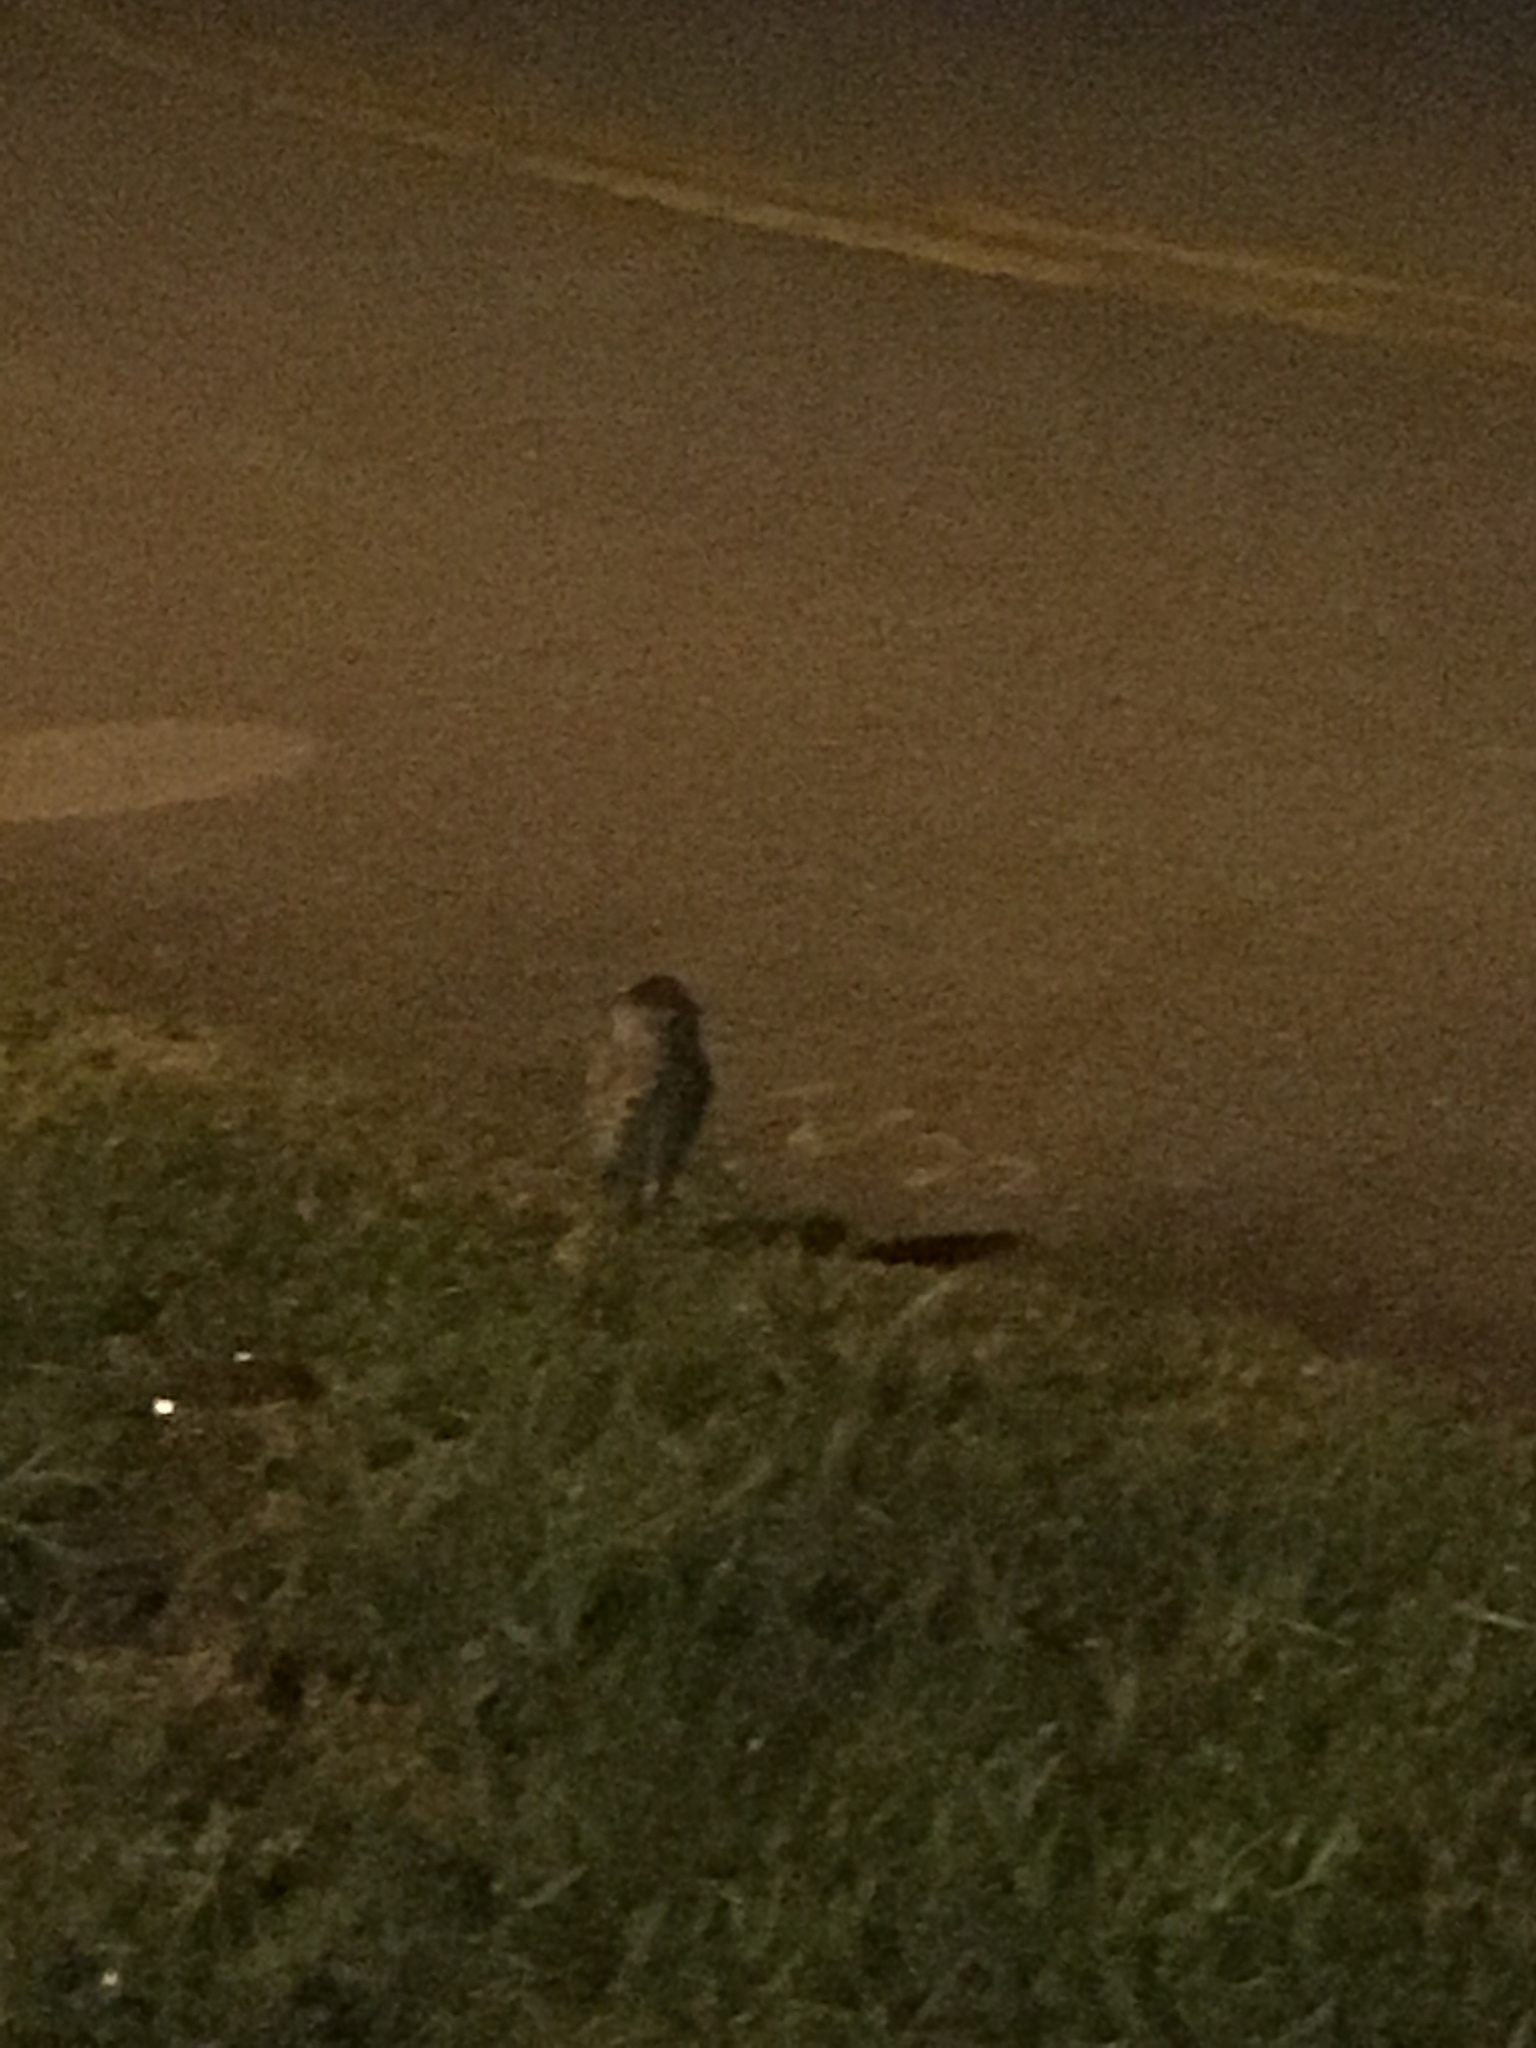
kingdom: Animalia
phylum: Chordata
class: Aves
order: Strigiformes
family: Strigidae
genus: Athene
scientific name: Athene cunicularia
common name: Burrowing owl
